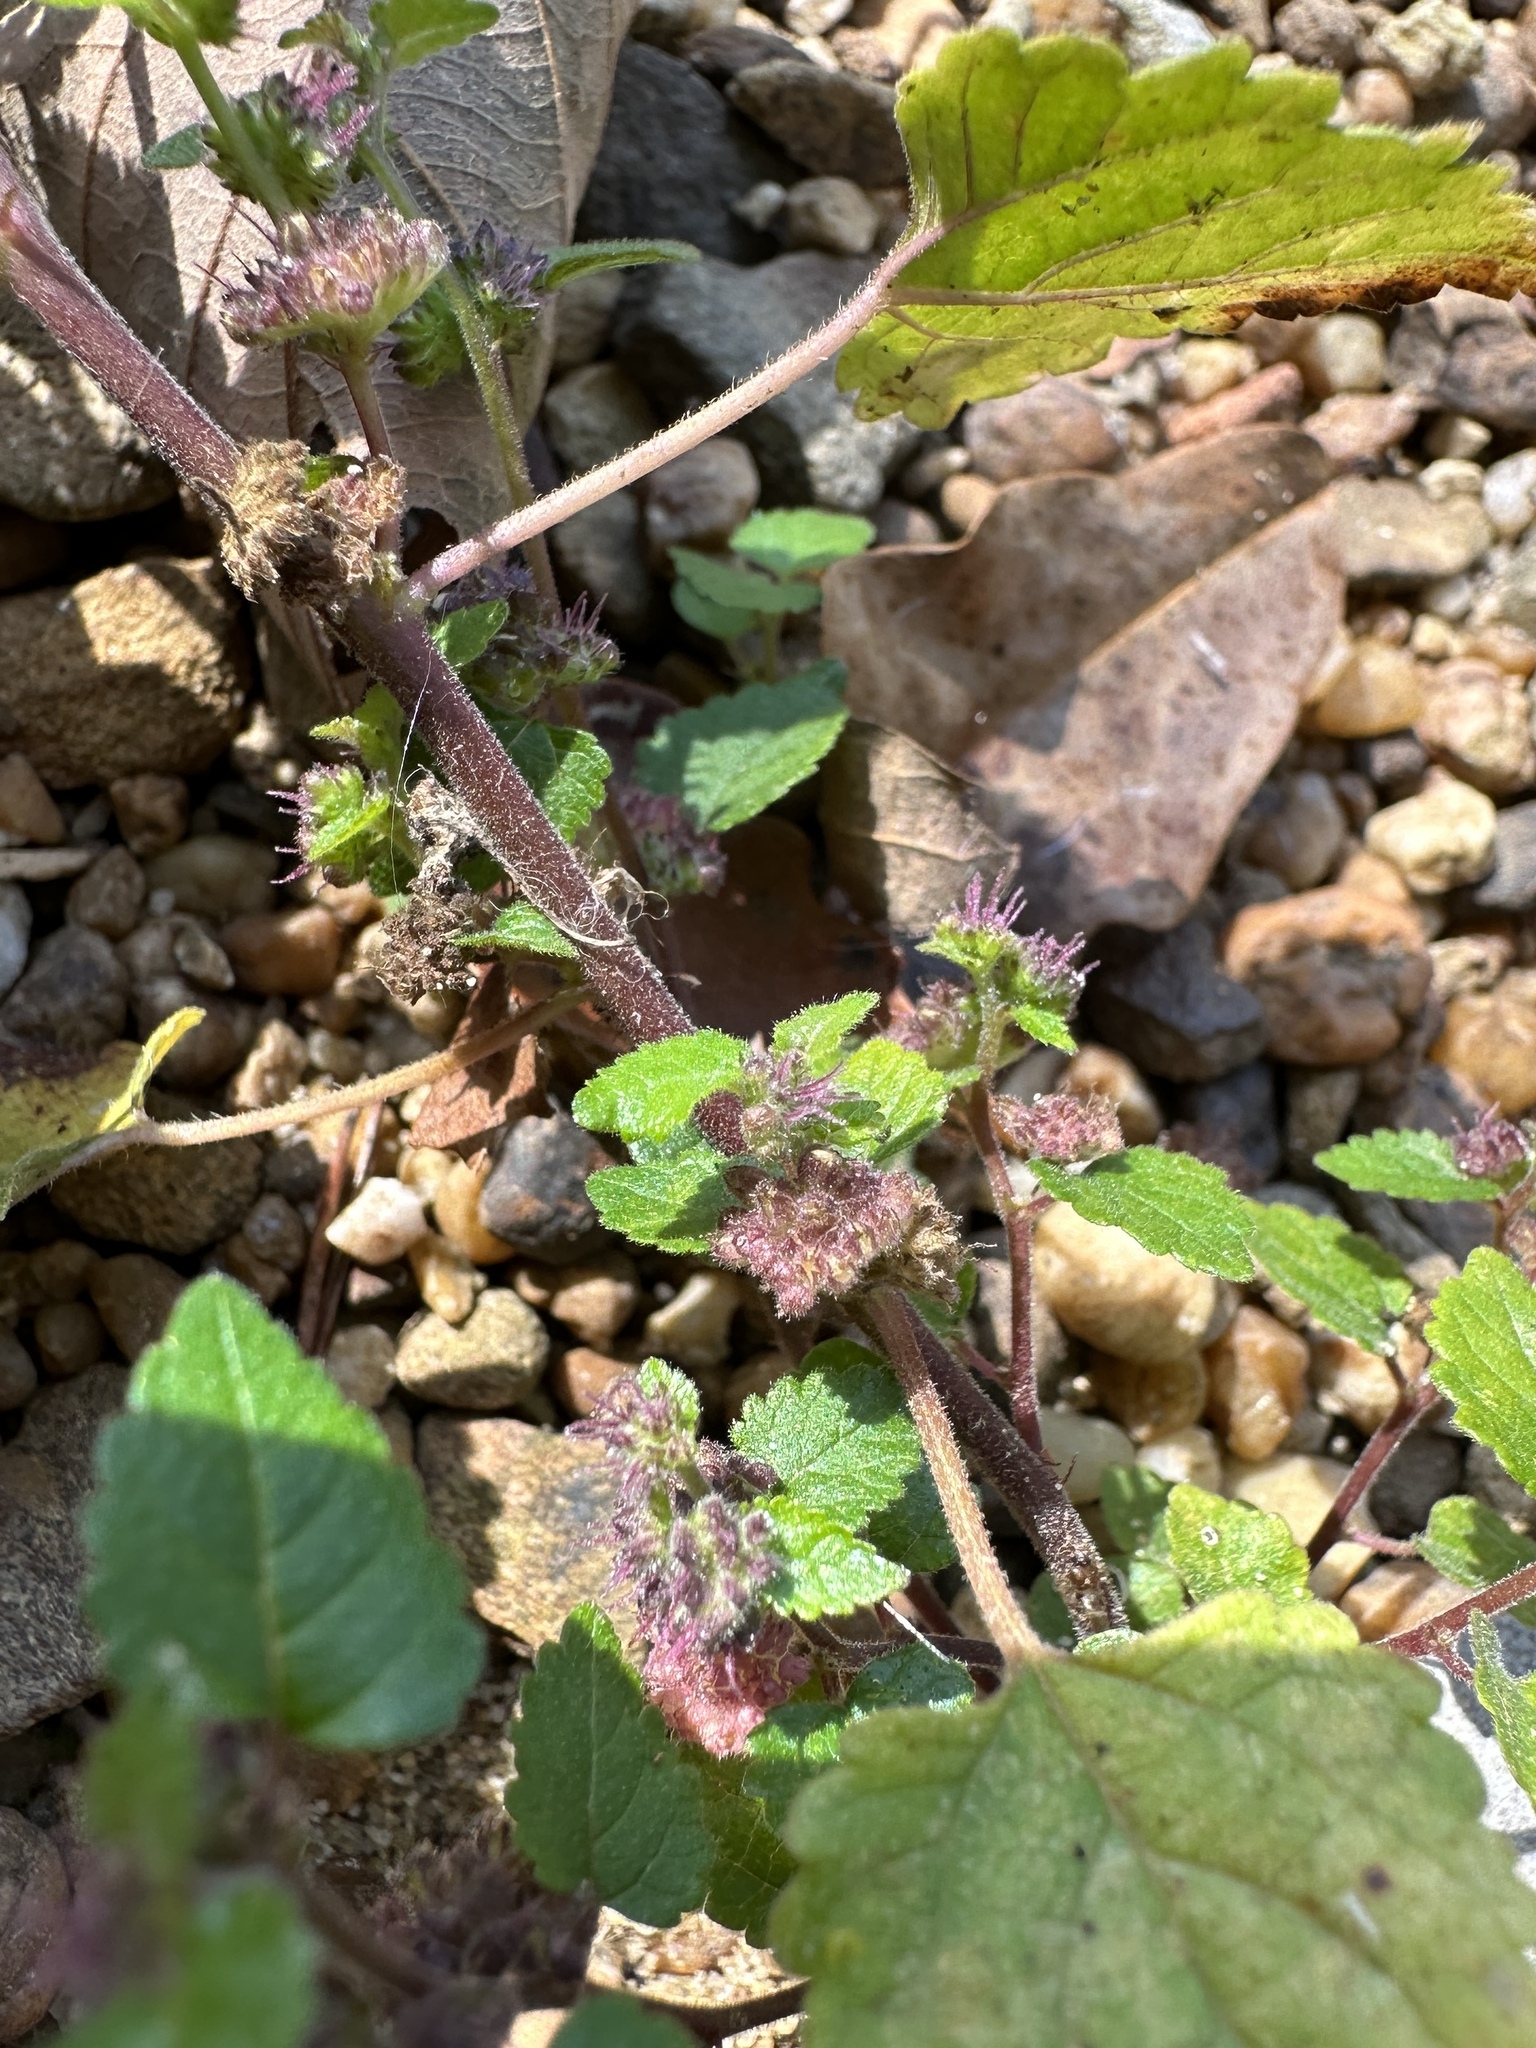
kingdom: Plantae
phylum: Tracheophyta
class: Magnoliopsida
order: Rosales
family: Moraceae
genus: Fatoua
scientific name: Fatoua villosa
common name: Hairy crabweed
